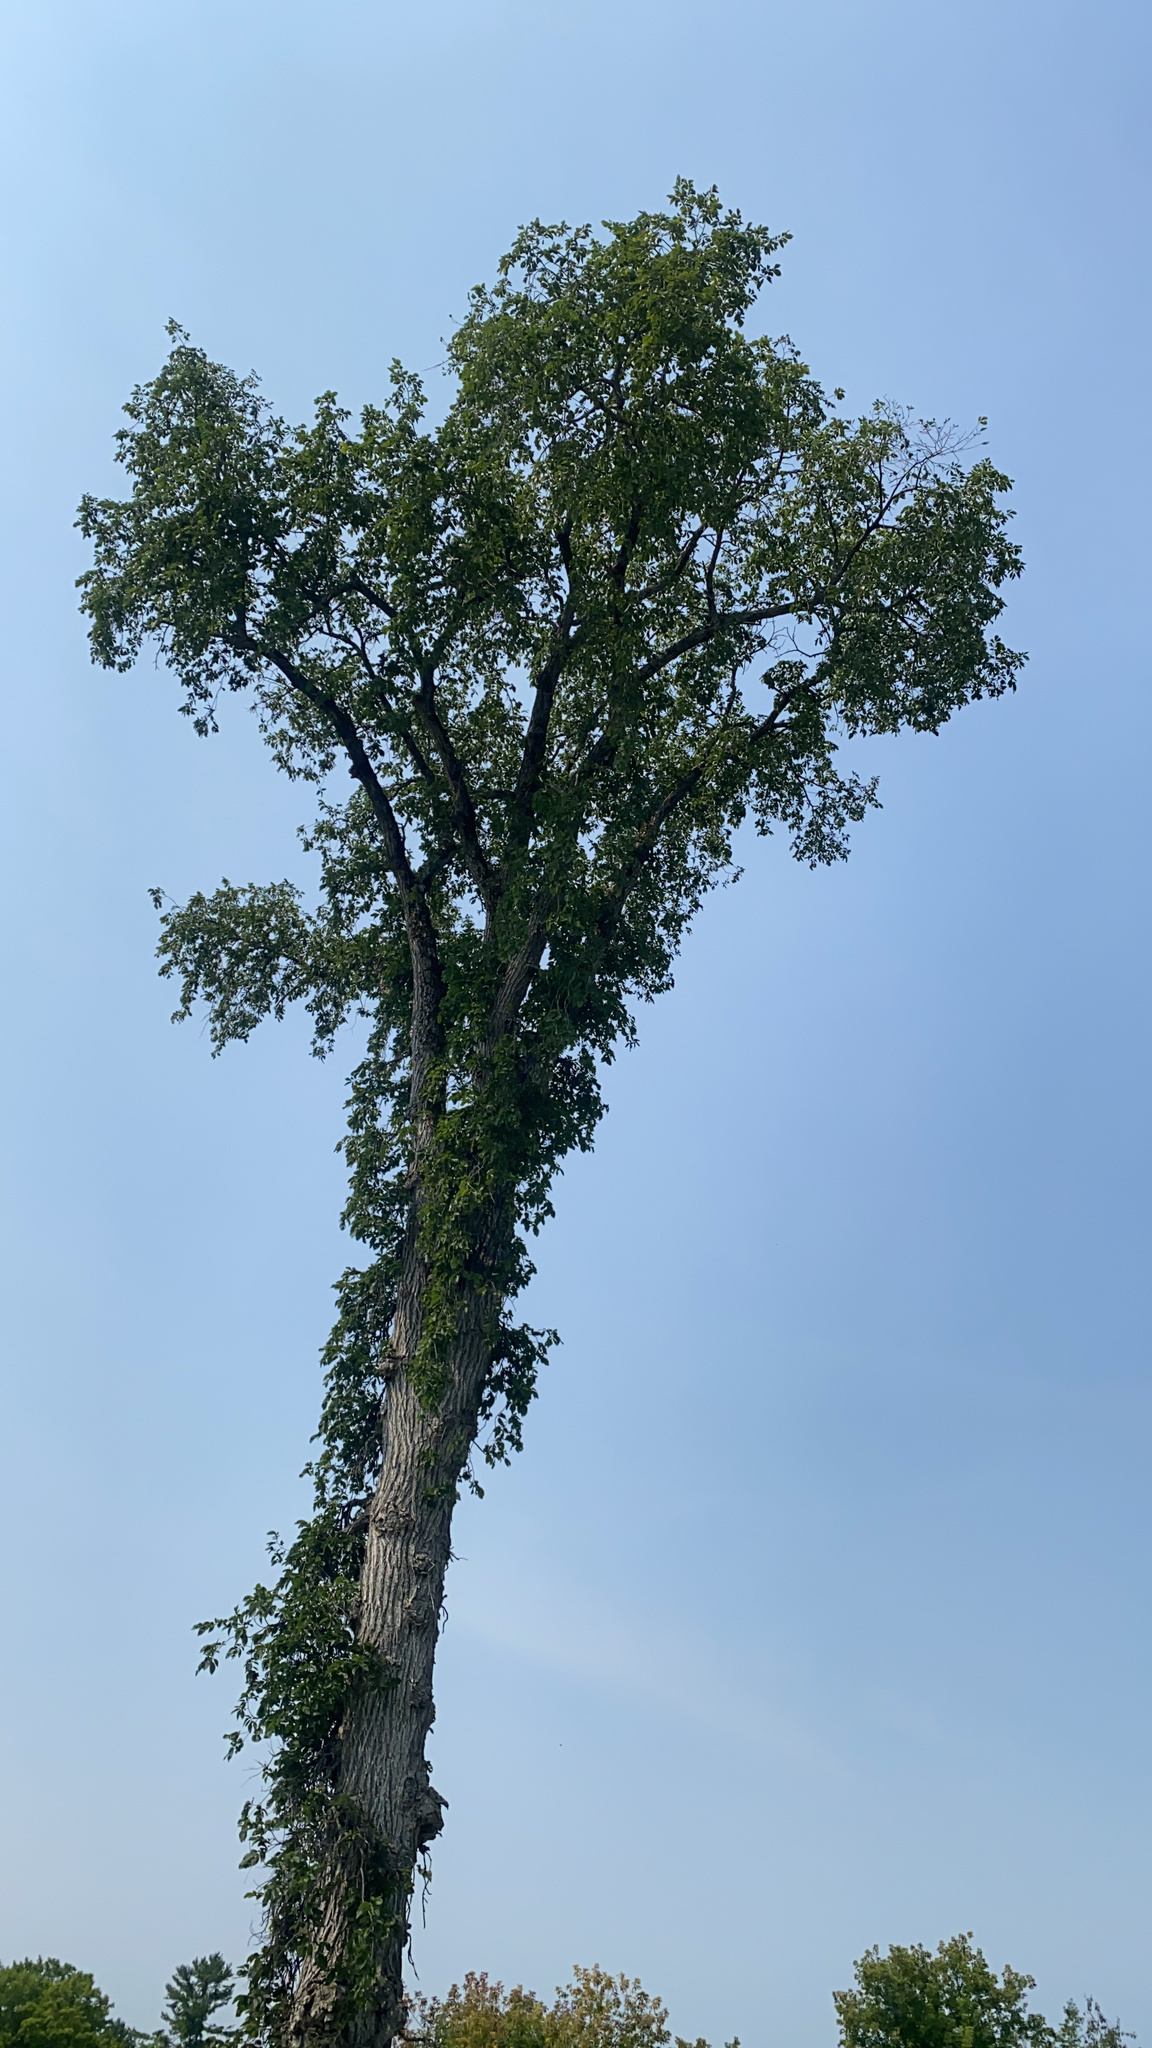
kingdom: Plantae
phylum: Tracheophyta
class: Magnoliopsida
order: Rosales
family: Ulmaceae
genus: Ulmus
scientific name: Ulmus americana
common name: American elm
